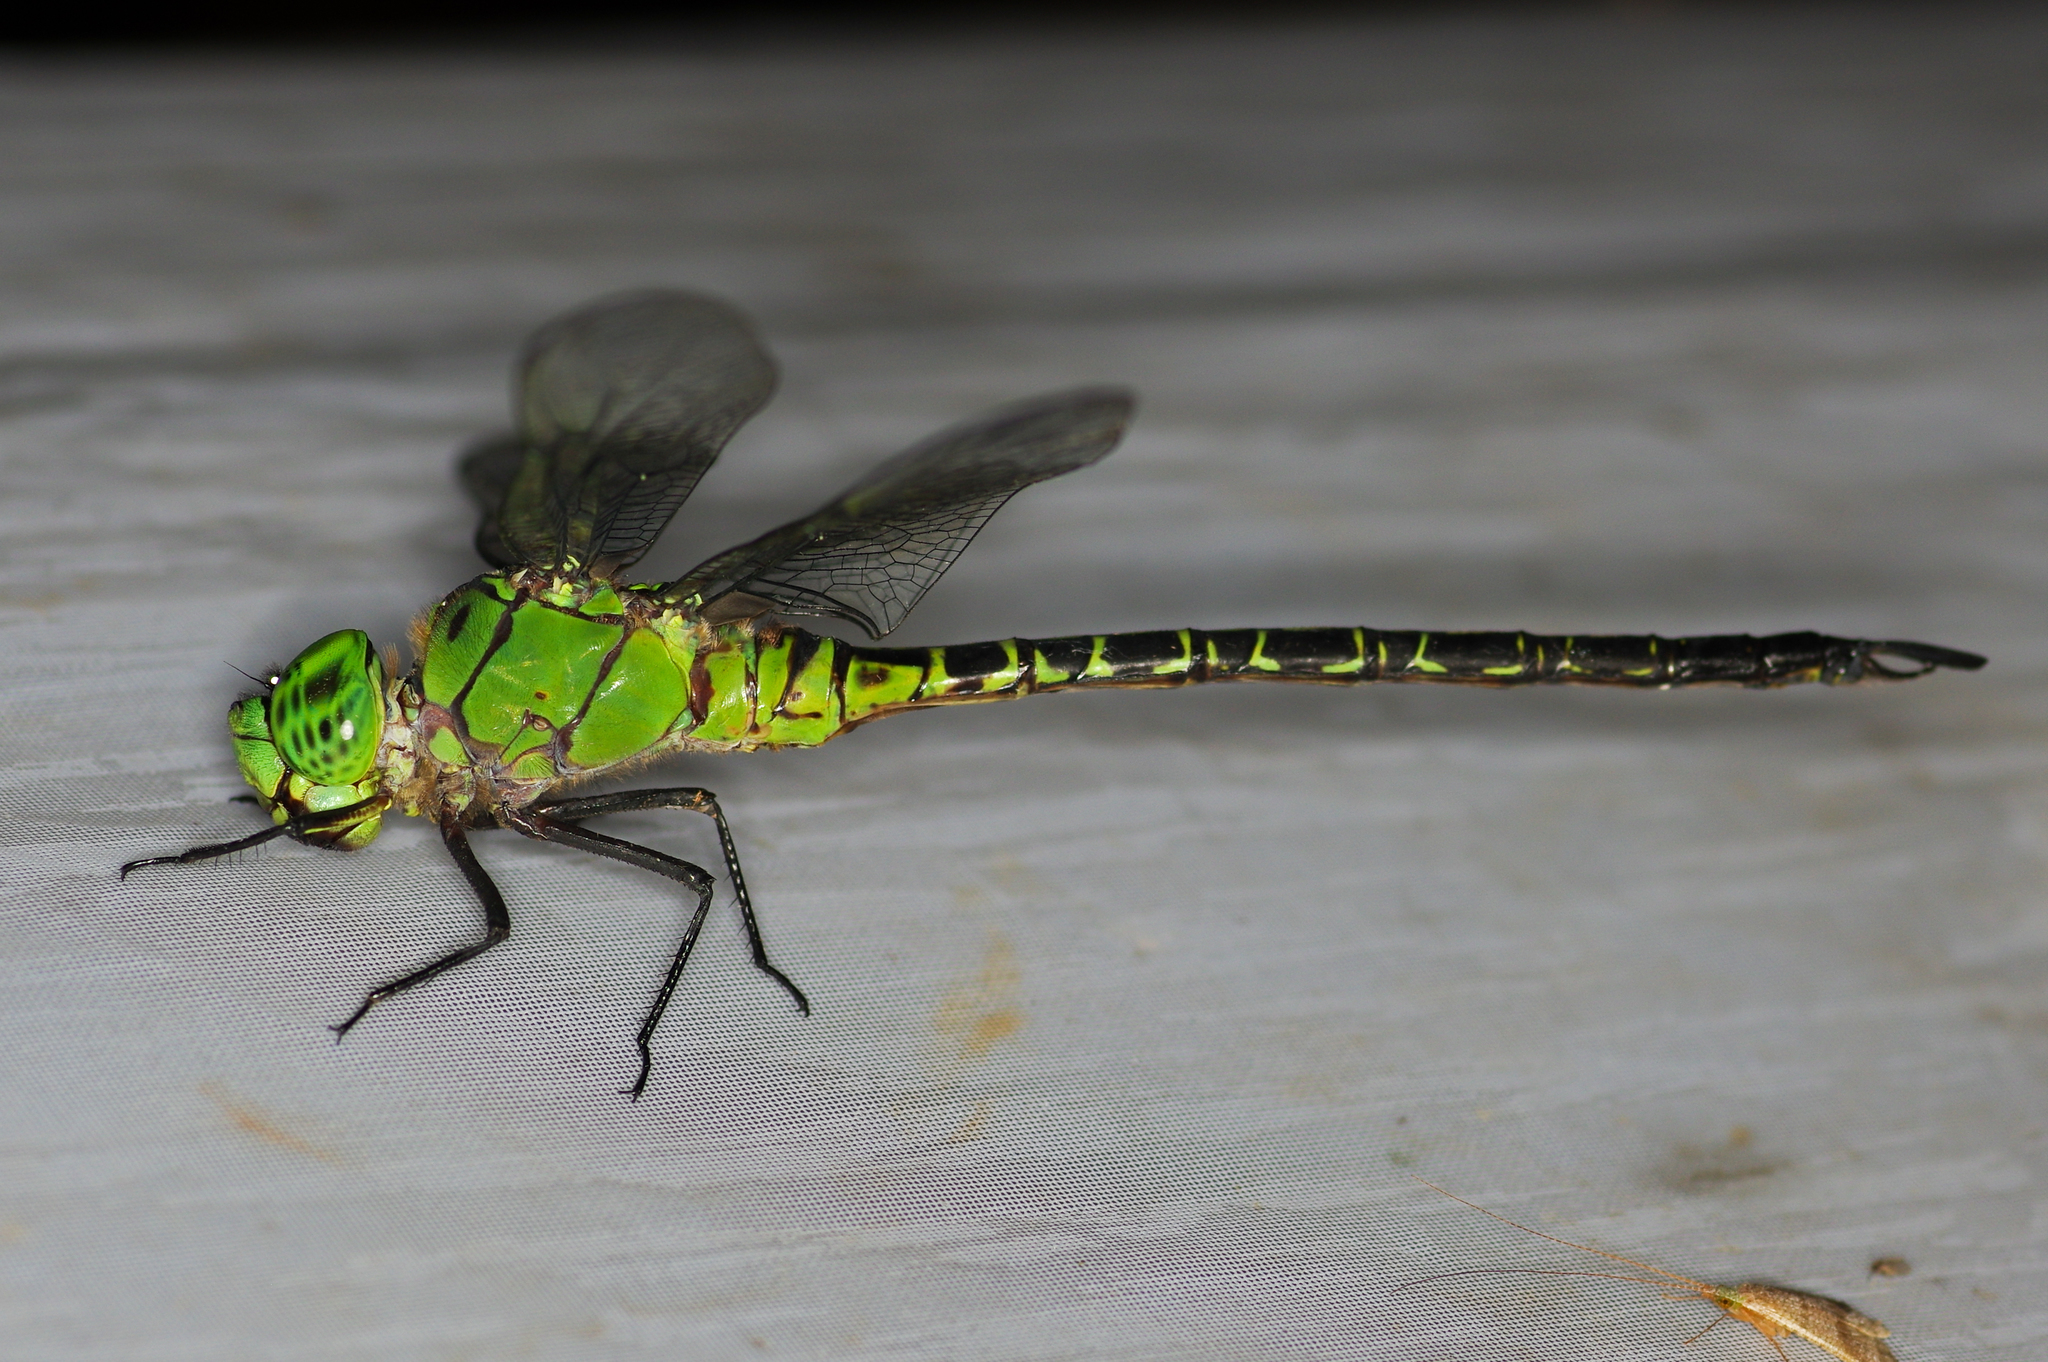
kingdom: Animalia
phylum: Arthropoda
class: Insecta
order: Odonata
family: Aeshnidae
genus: Coryphaeschna
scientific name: Coryphaeschna viriditas
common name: Mangrove darner
